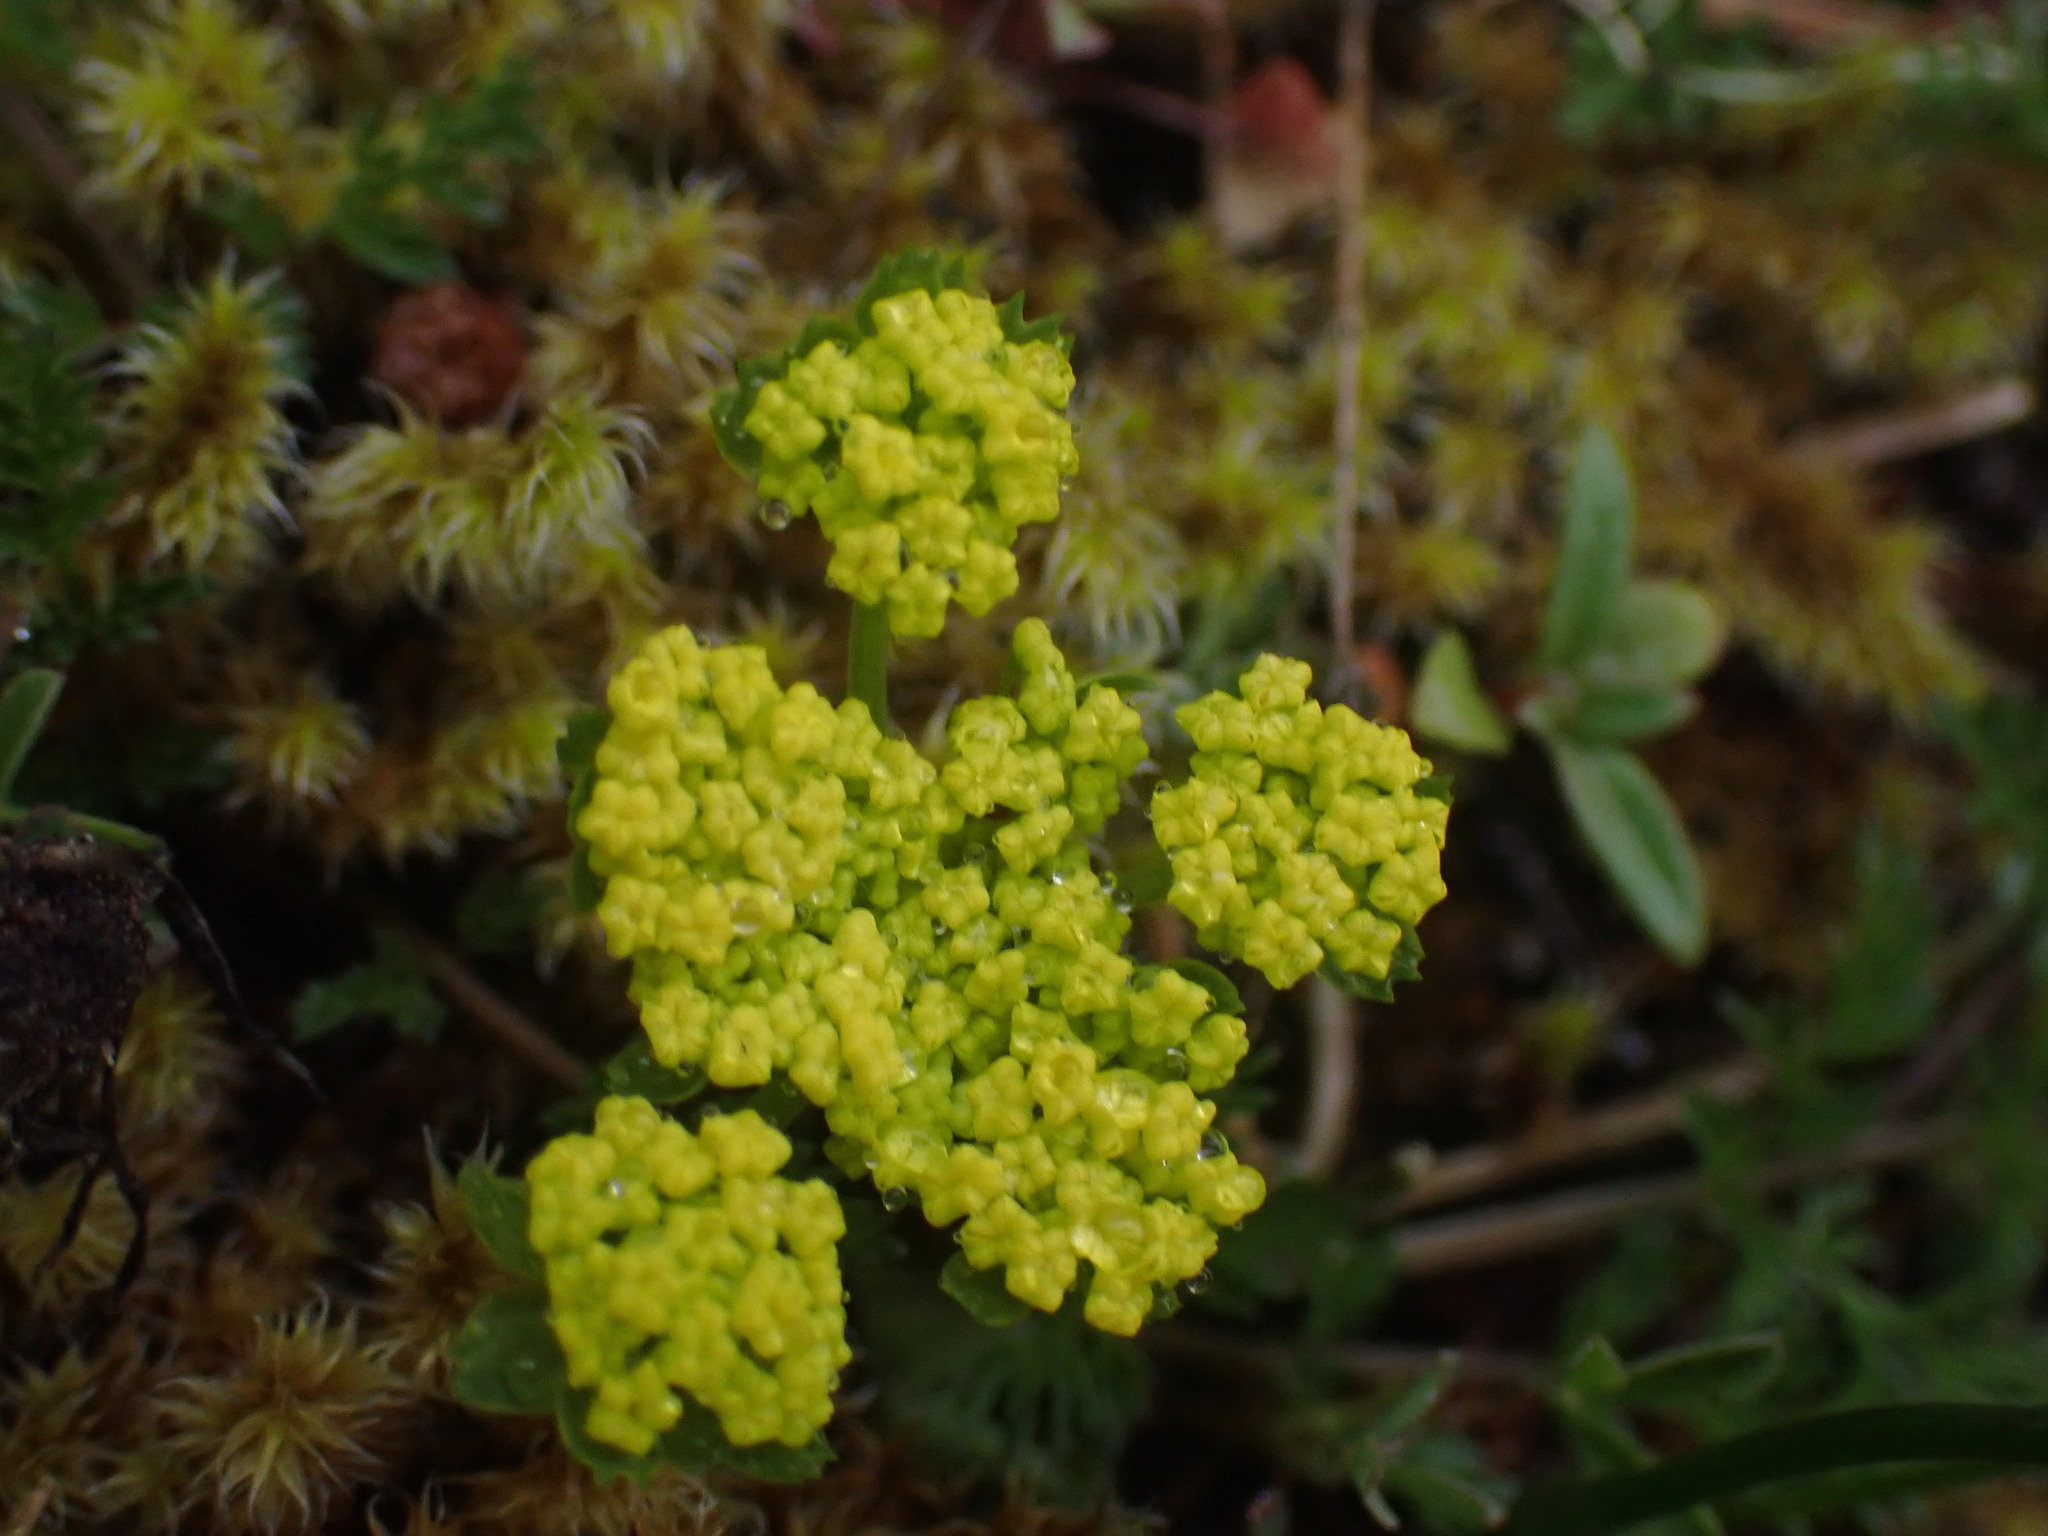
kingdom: Plantae
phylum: Tracheophyta
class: Magnoliopsida
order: Apiales
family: Apiaceae
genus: Lomatium
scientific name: Lomatium utriculatum
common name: Fine-leaf desert-parsley
